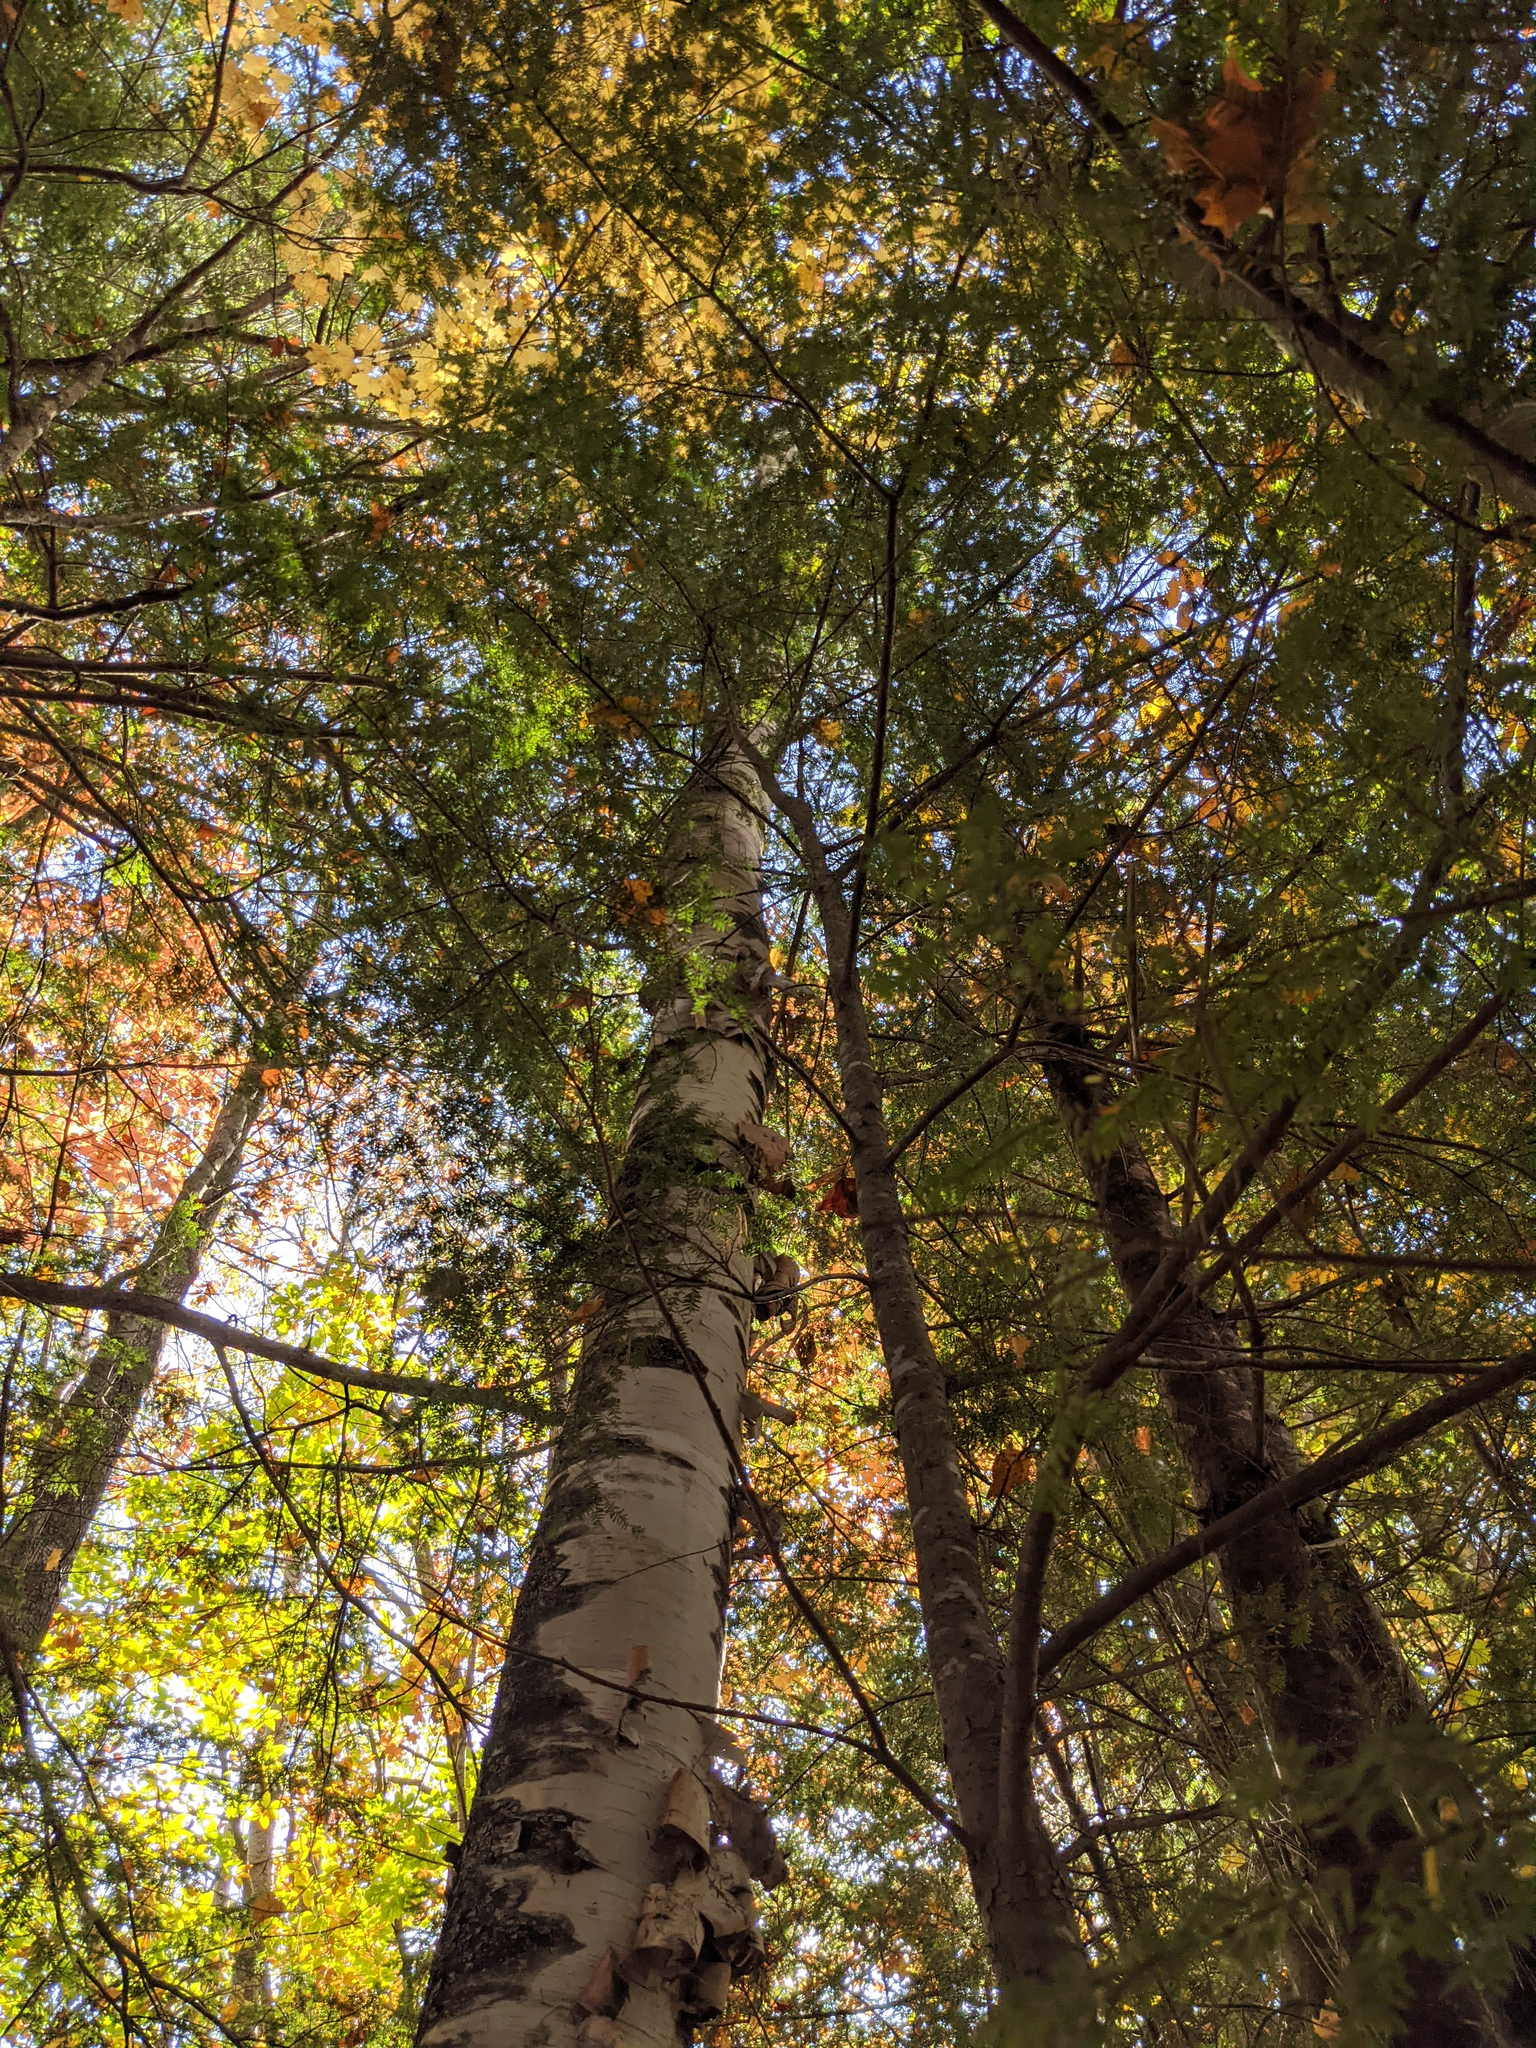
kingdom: Plantae
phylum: Tracheophyta
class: Magnoliopsida
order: Fagales
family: Betulaceae
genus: Betula
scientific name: Betula papyrifera
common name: Paper birch
